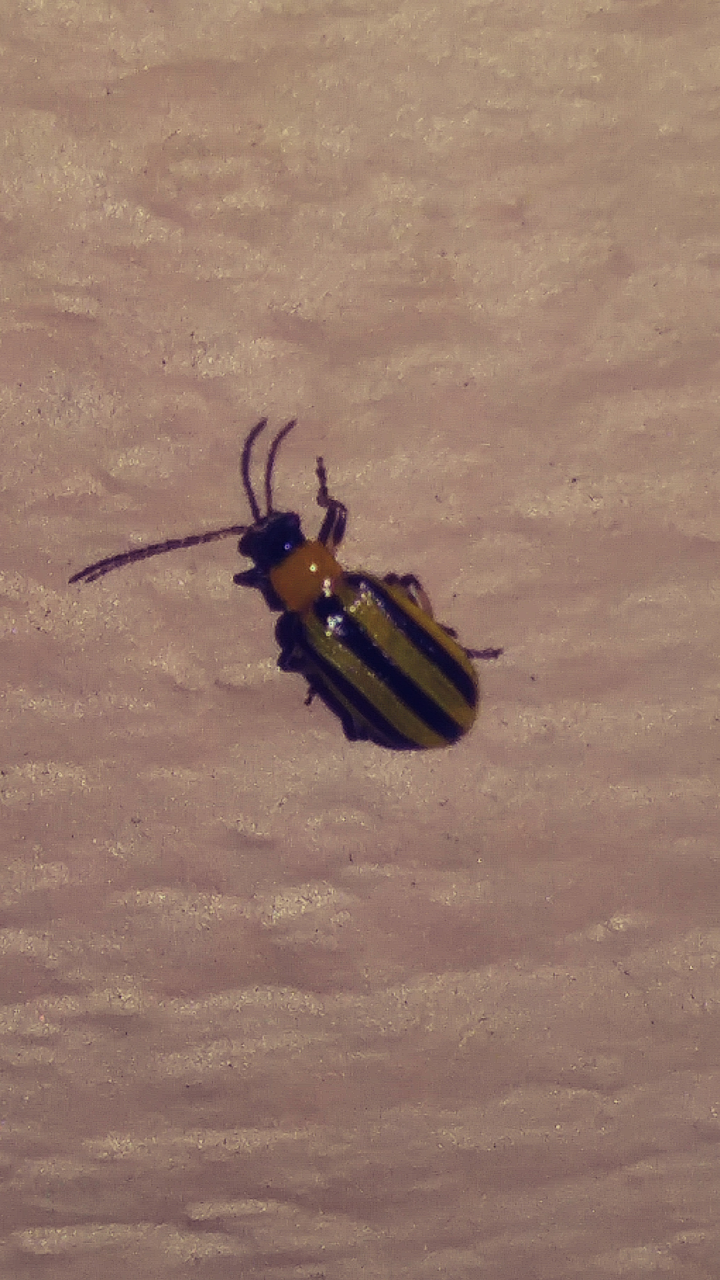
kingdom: Animalia
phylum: Arthropoda
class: Insecta
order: Coleoptera
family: Chrysomelidae
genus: Acalymma
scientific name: Acalymma vittatum
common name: Striped cucumber beetle
